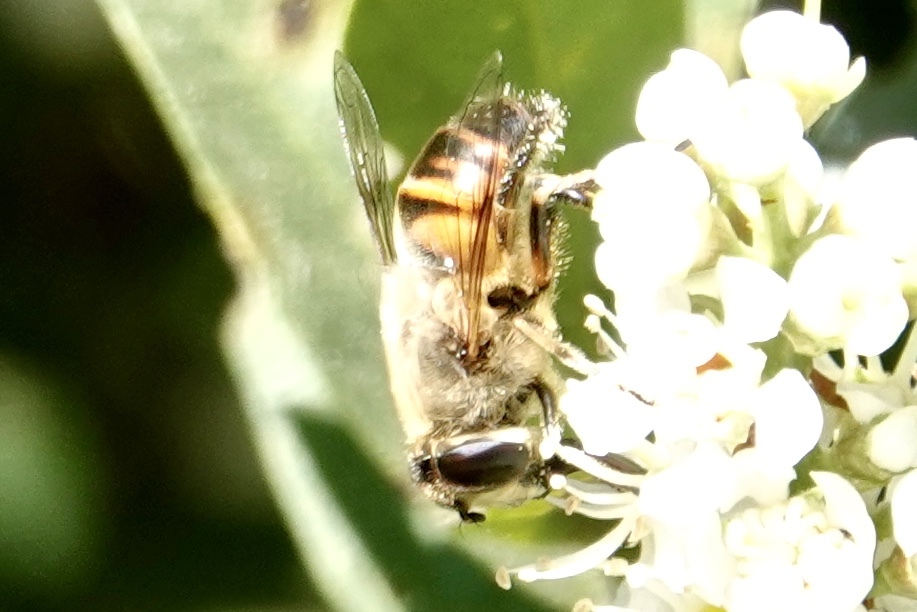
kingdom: Animalia
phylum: Arthropoda
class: Insecta
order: Diptera
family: Syrphidae
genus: Eristalis
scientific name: Eristalis tenax
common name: Drone fly
